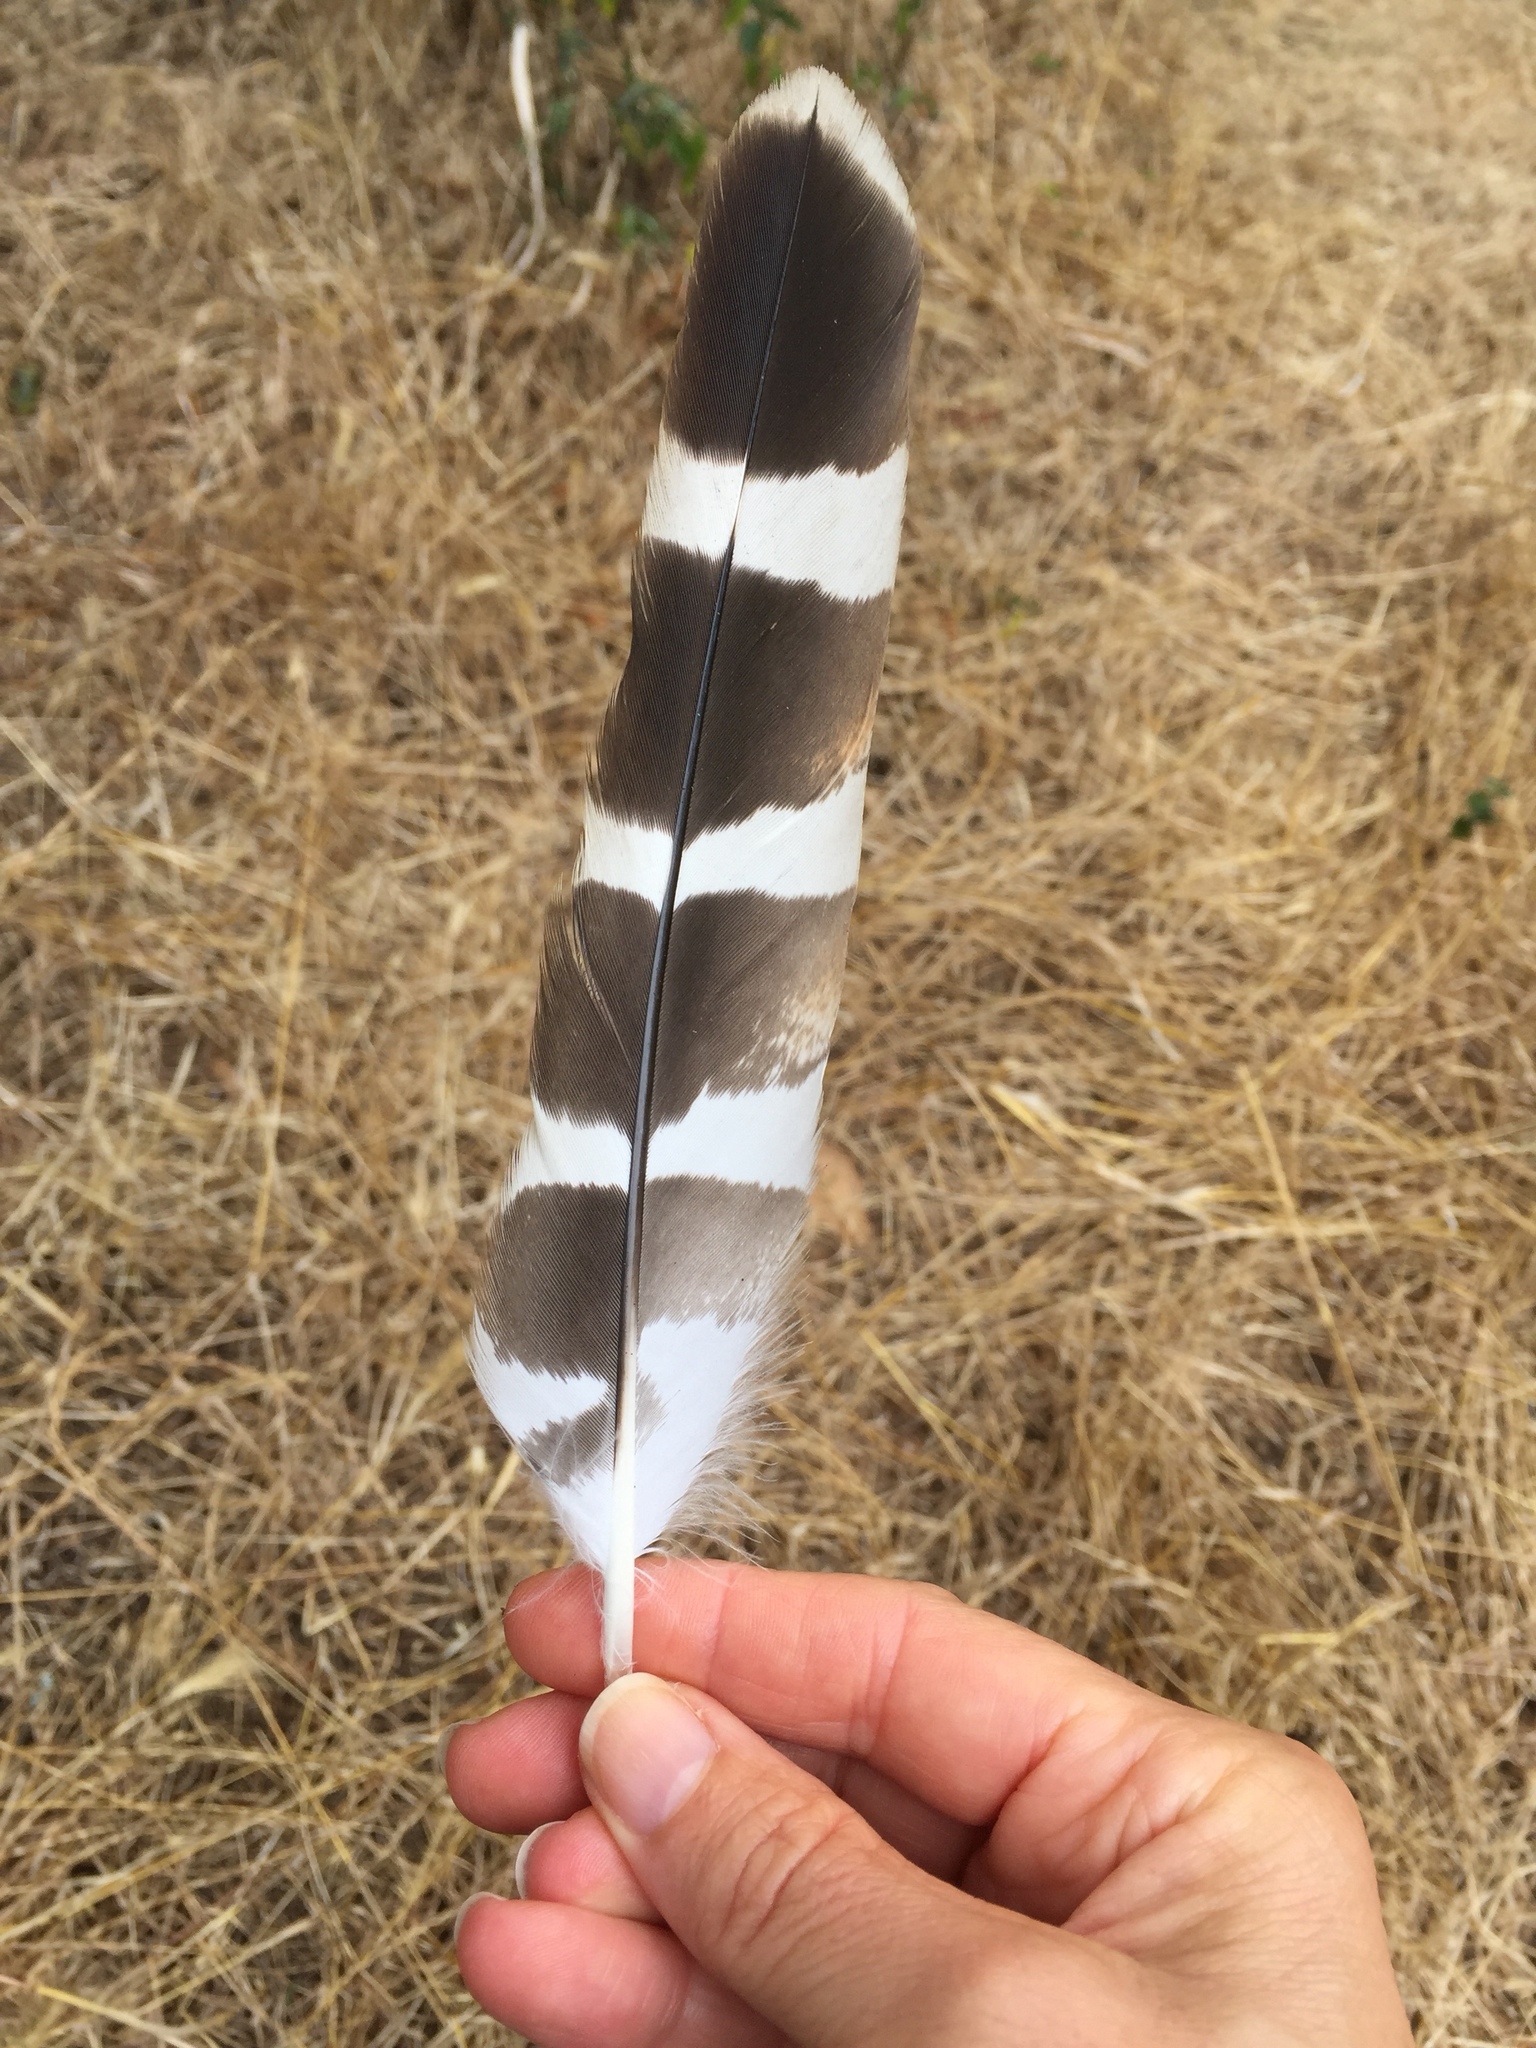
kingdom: Animalia
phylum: Chordata
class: Aves
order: Accipitriformes
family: Accipitridae
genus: Buteo
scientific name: Buteo lineatus
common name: Red-shouldered hawk
